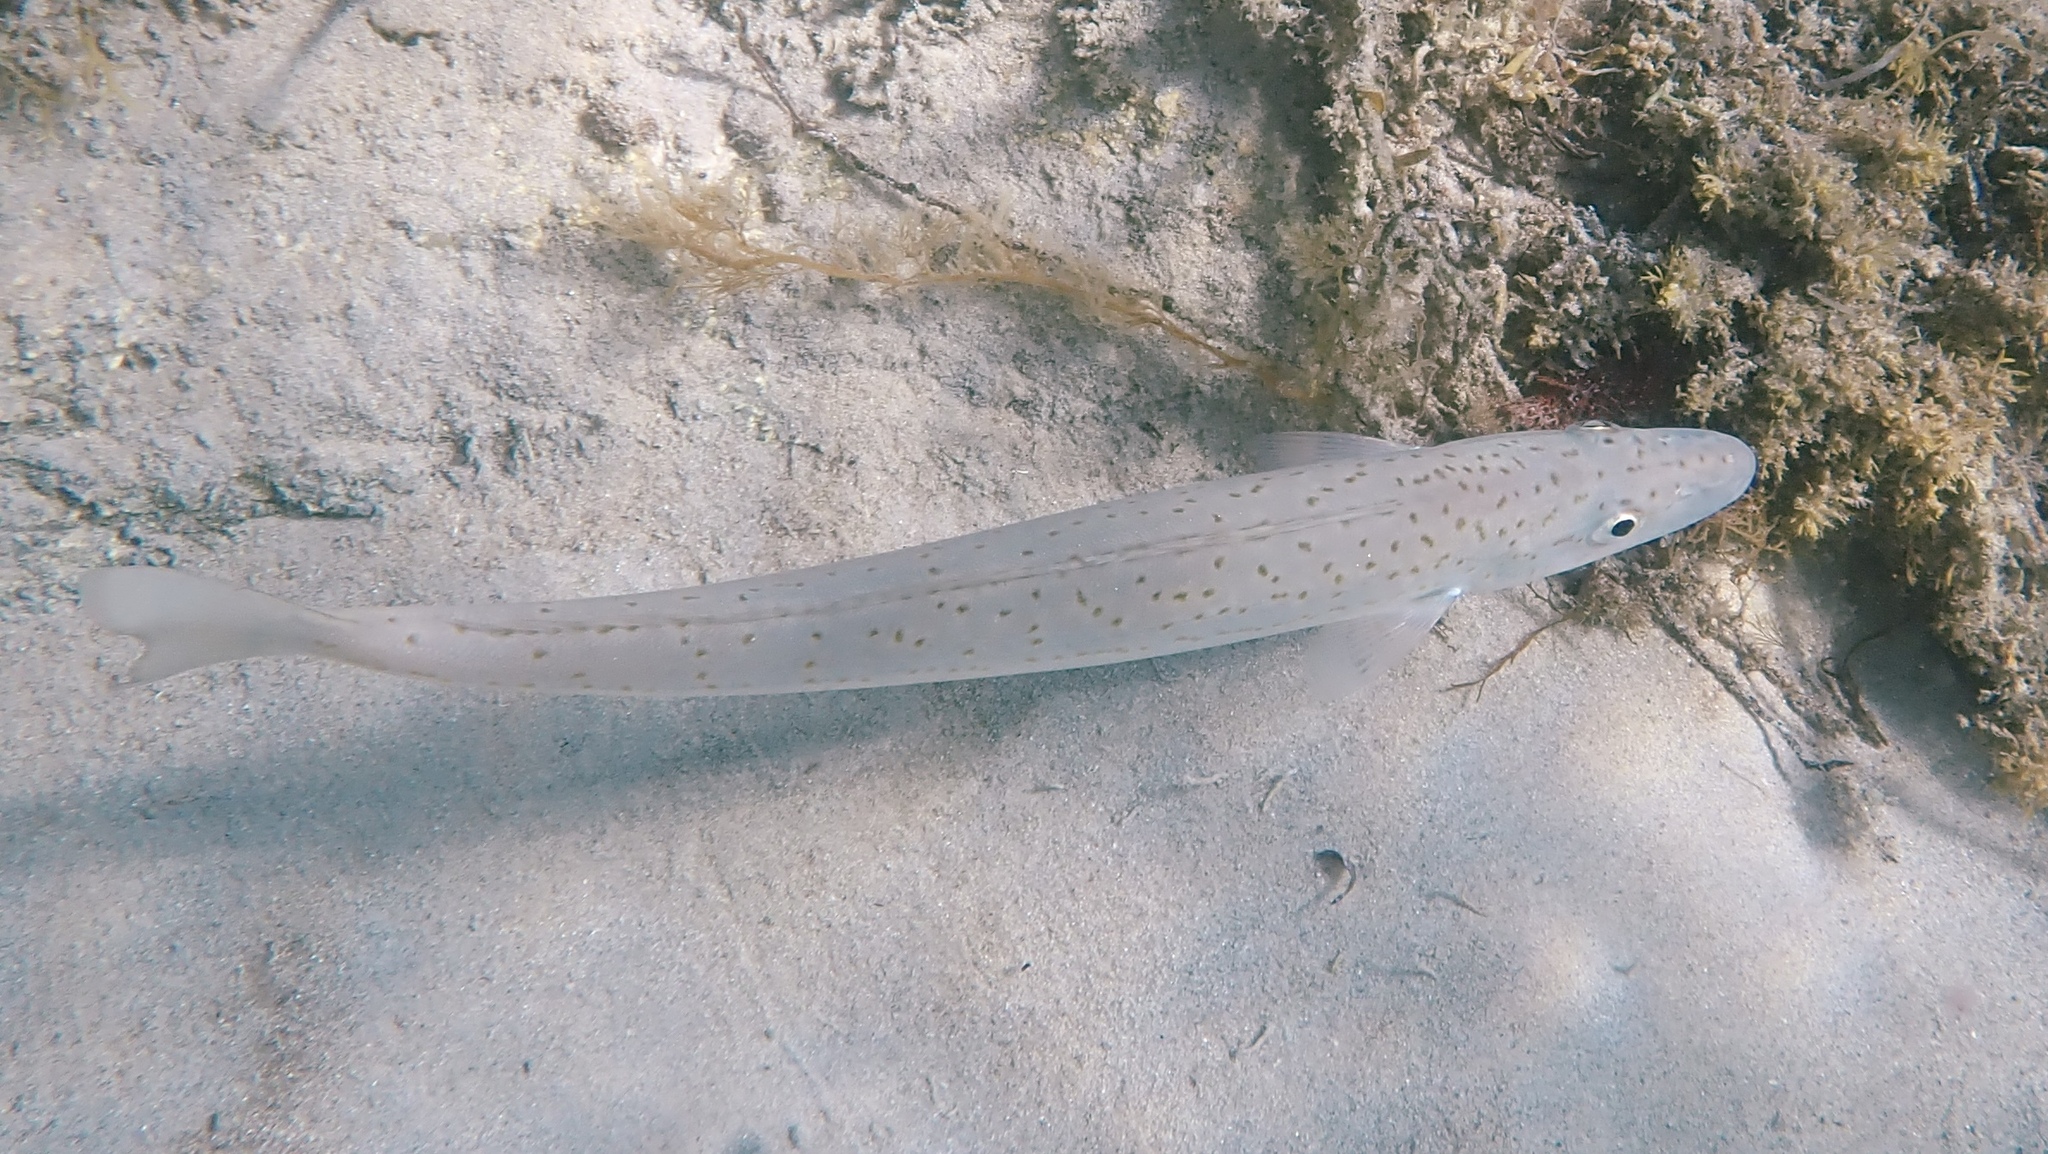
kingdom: Animalia
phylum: Chordata
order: Perciformes
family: Sillaginidae
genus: Sillaginodes
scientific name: Sillaginodes punctatus
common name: King george whiting
